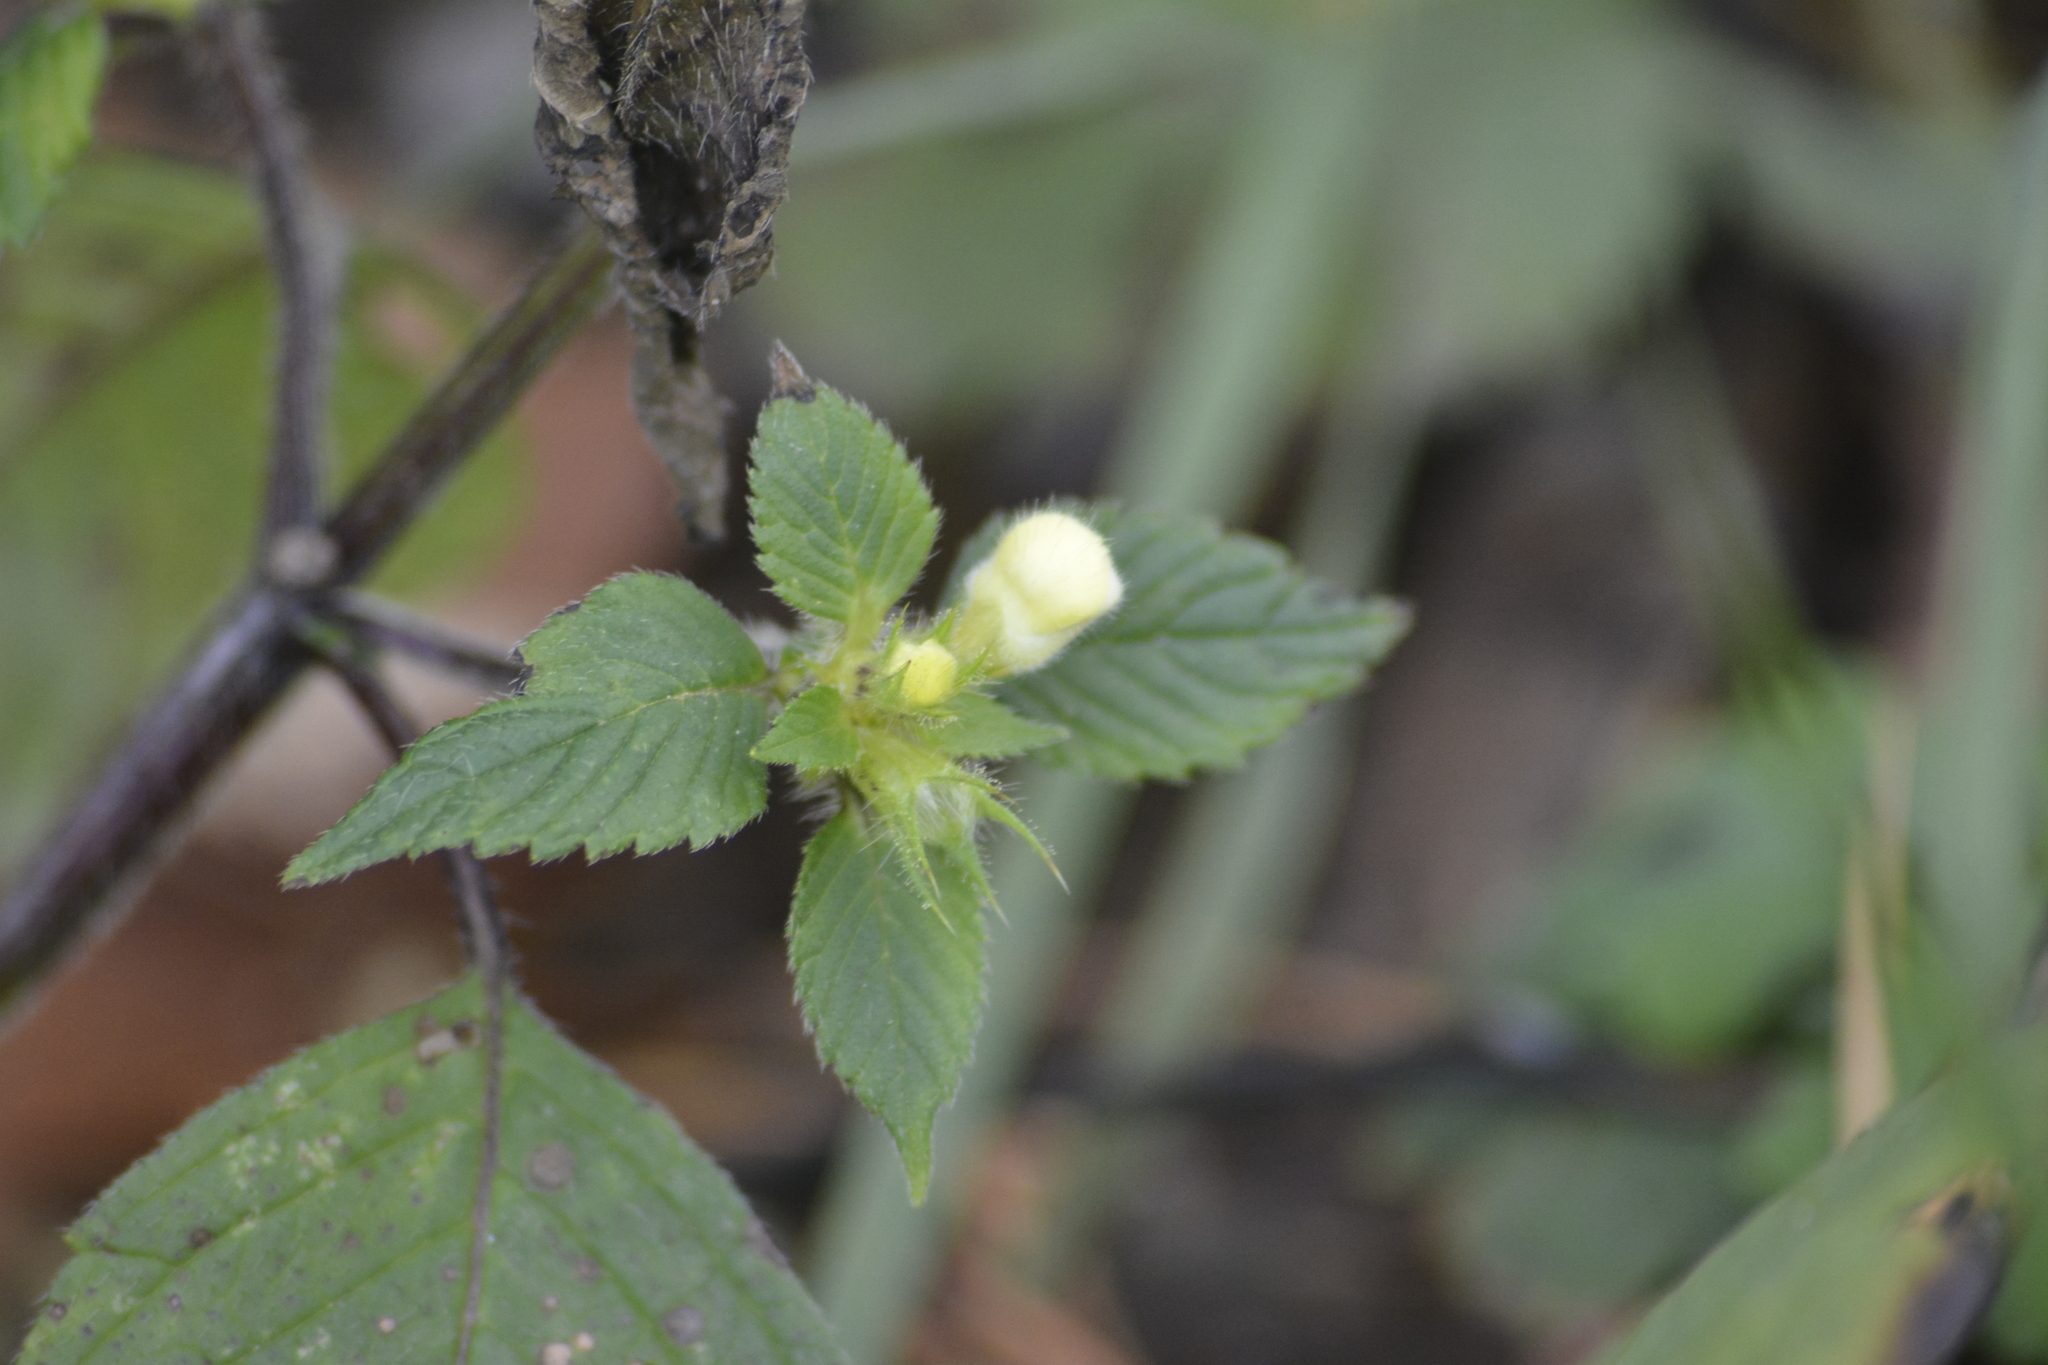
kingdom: Plantae
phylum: Tracheophyta
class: Magnoliopsida
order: Lamiales
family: Lamiaceae
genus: Galeopsis
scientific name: Galeopsis speciosa
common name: Large-flowered hemp-nettle
